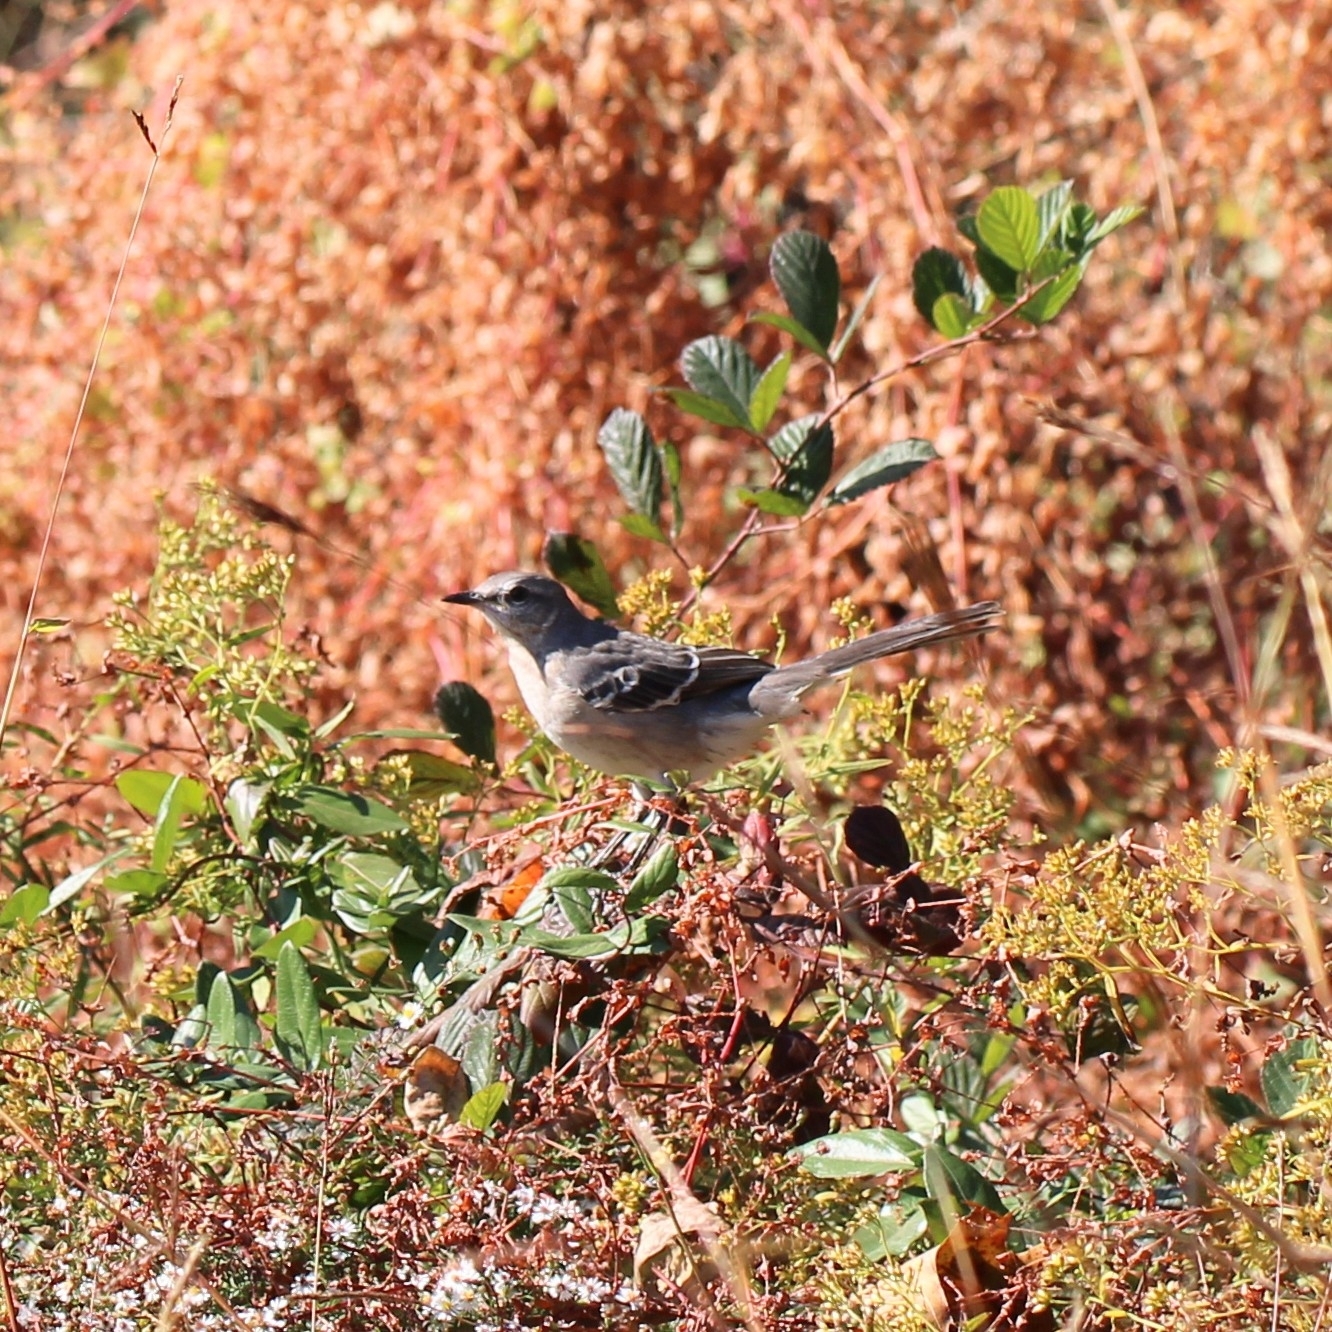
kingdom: Animalia
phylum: Chordata
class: Aves
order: Passeriformes
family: Mimidae
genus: Mimus
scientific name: Mimus polyglottos
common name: Northern mockingbird
